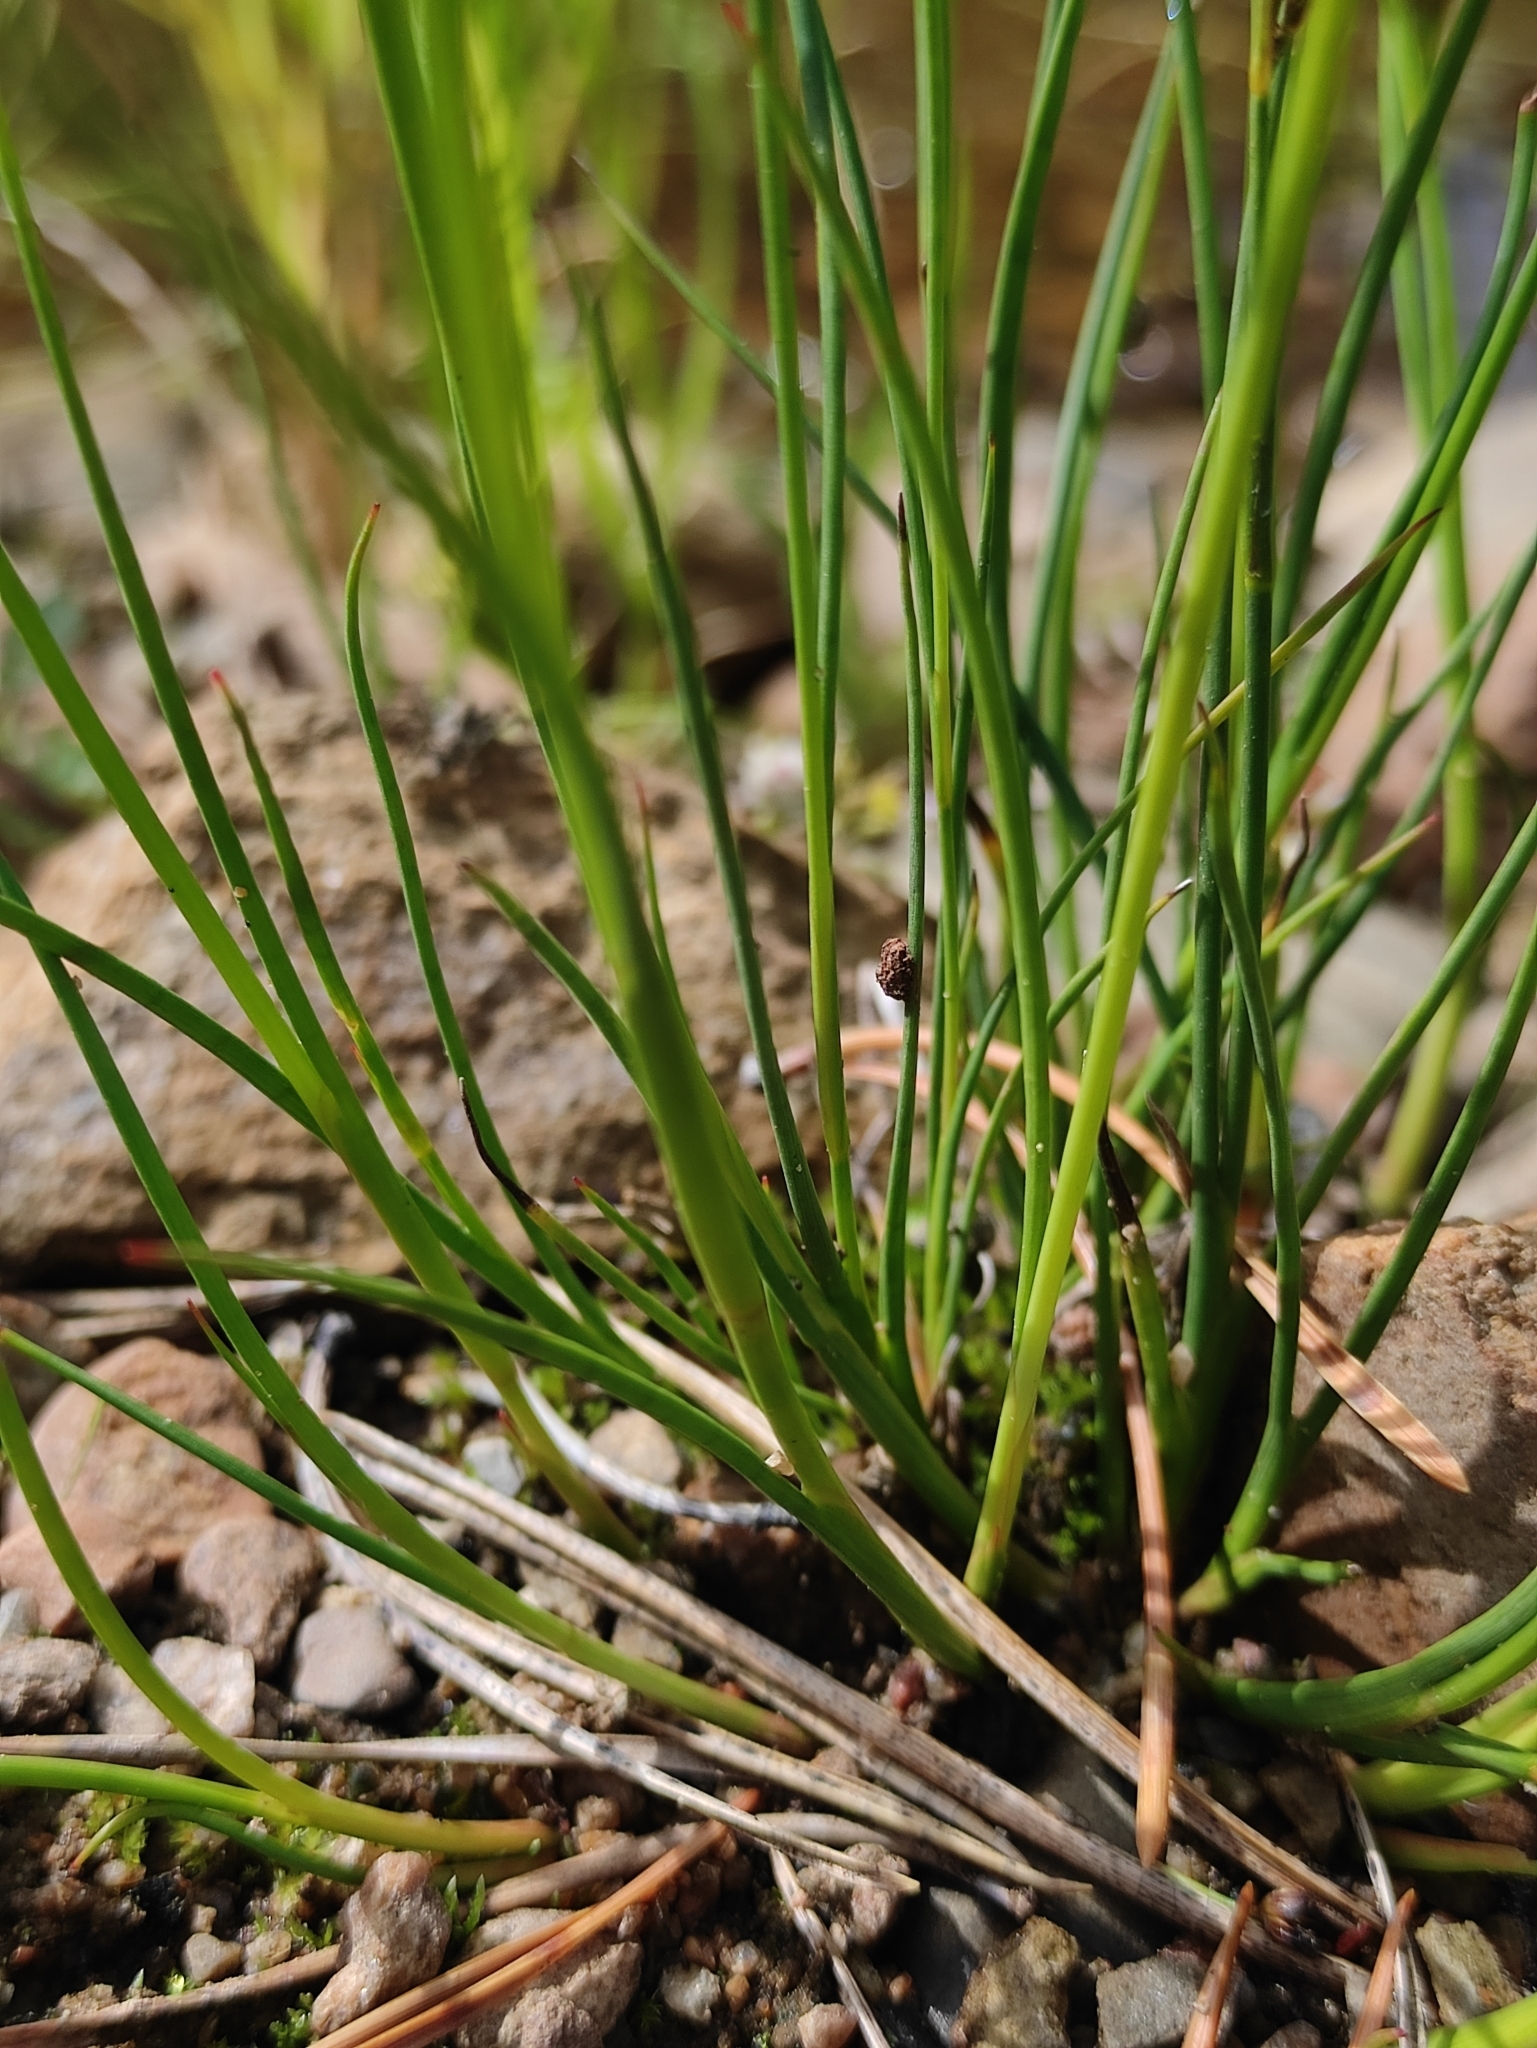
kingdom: Plantae
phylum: Tracheophyta
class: Liliopsida
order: Poales
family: Juncaceae
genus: Juncus
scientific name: Juncus alpinoarticulatus
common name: Alpine rush
